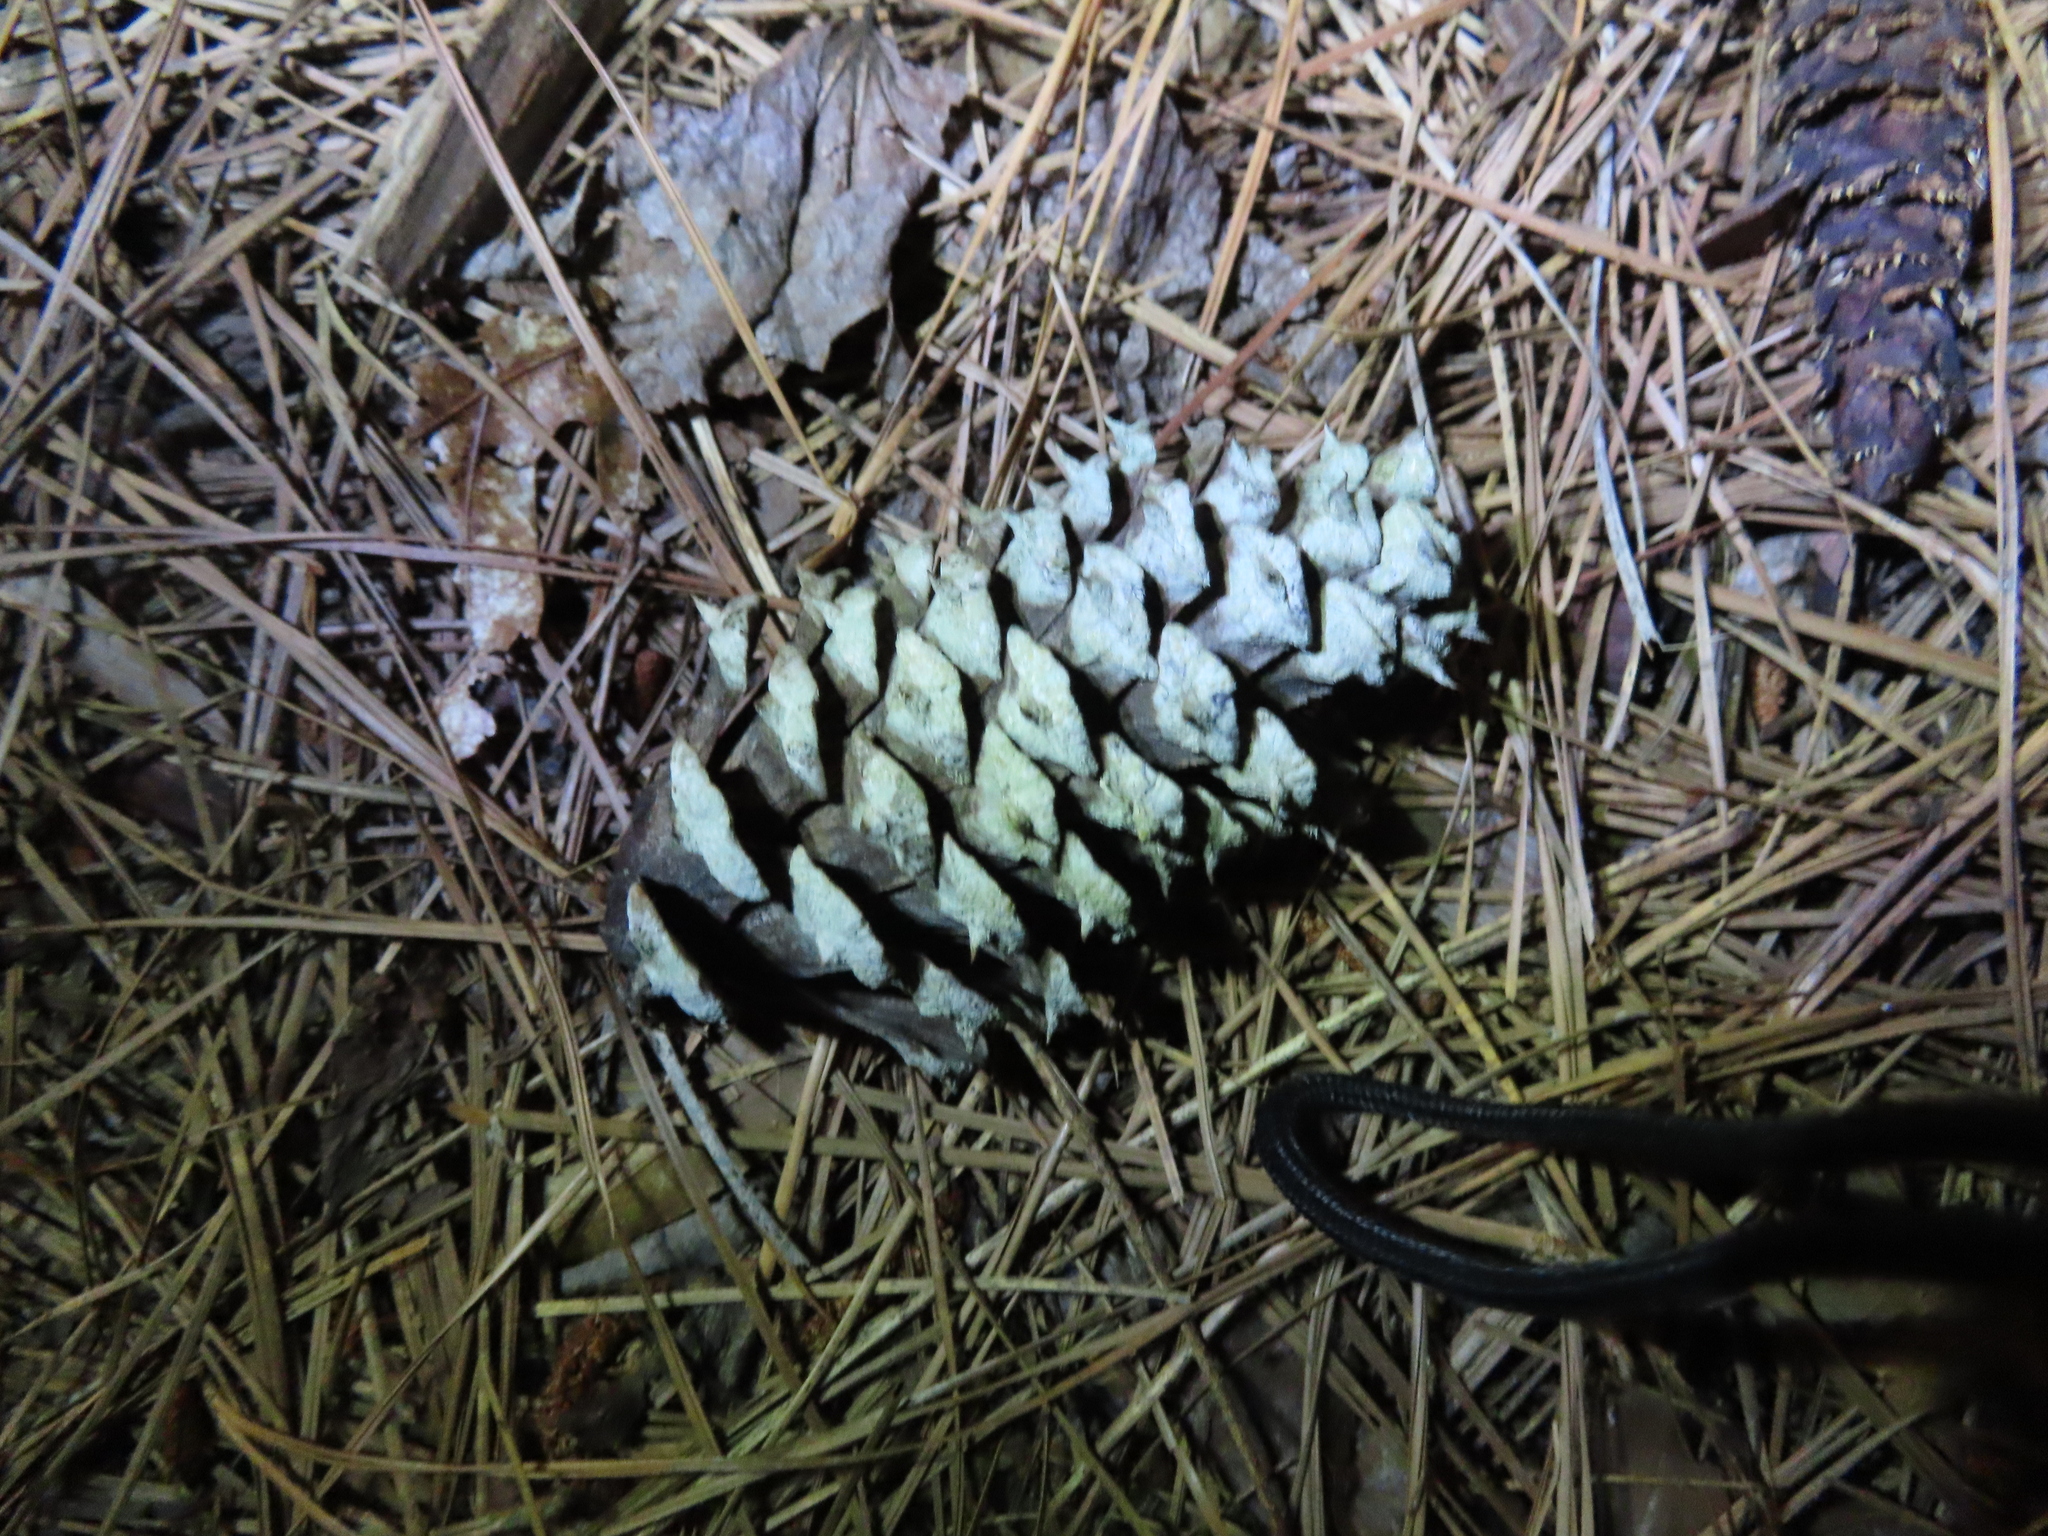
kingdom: Plantae
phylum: Tracheophyta
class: Pinopsida
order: Pinales
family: Pinaceae
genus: Pinus
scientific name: Pinus taeda
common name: Loblolly pine
